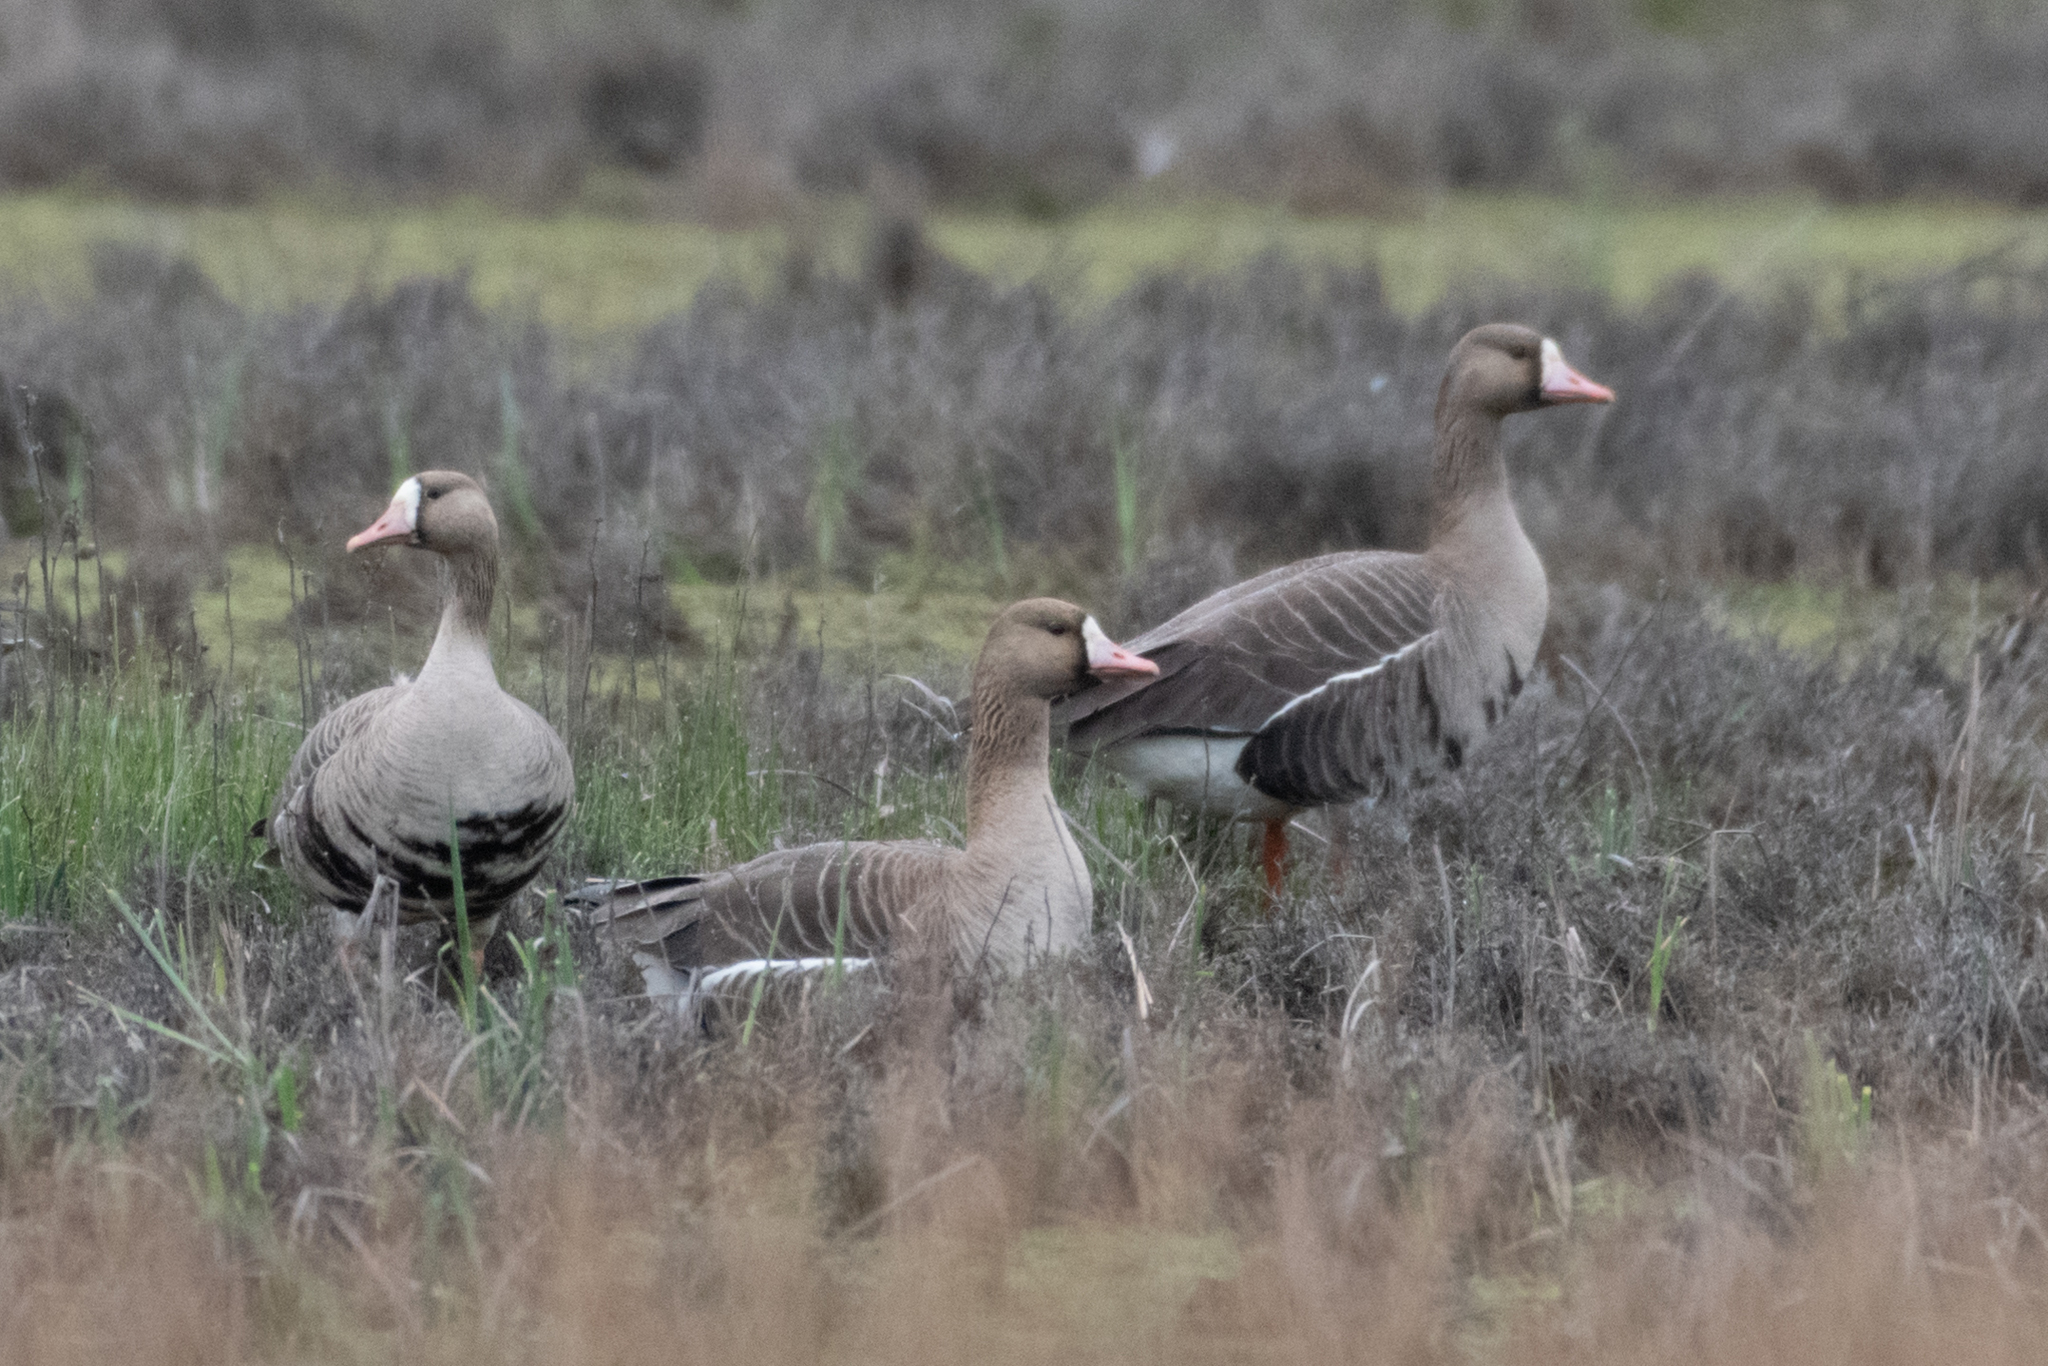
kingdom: Animalia
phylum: Chordata
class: Aves
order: Anseriformes
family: Anatidae
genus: Anser
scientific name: Anser albifrons
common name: Greater white-fronted goose
